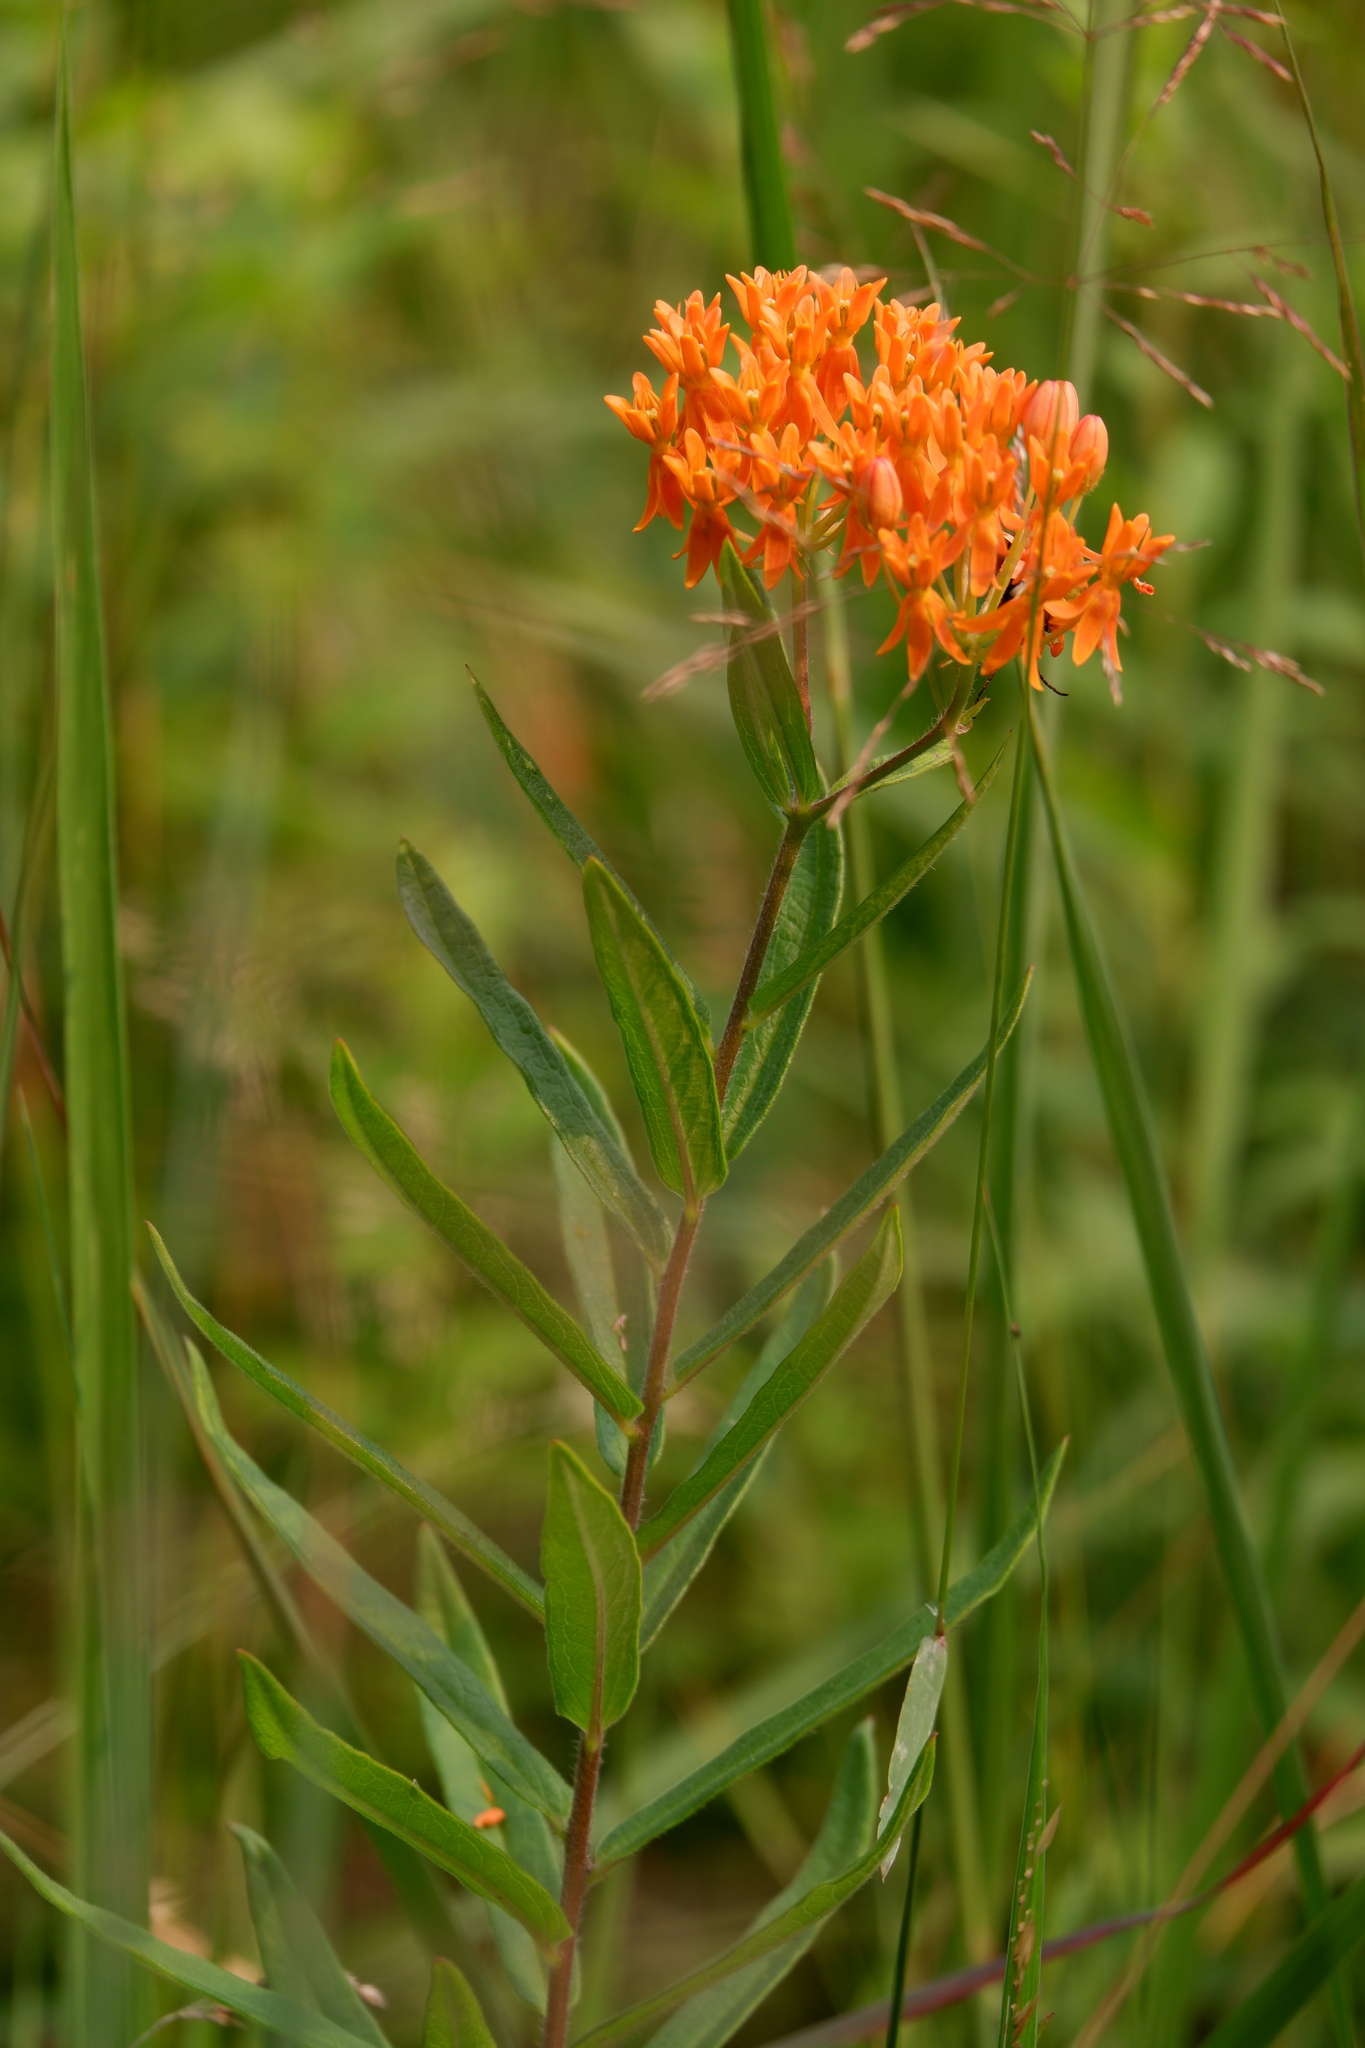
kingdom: Plantae
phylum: Tracheophyta
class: Magnoliopsida
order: Gentianales
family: Apocynaceae
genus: Asclepias
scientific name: Asclepias tuberosa
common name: Butterfly milkweed
